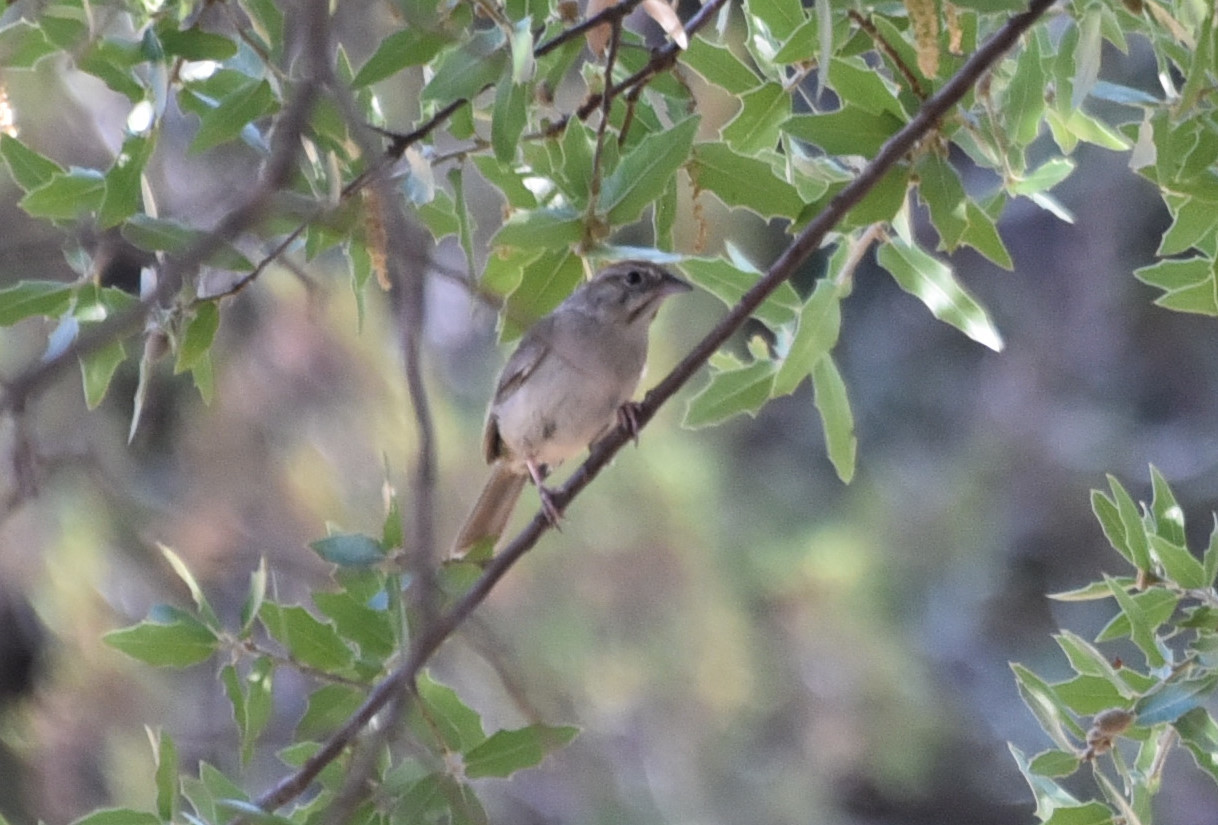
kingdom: Animalia
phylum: Chordata
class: Aves
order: Passeriformes
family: Passerellidae
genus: Aimophila
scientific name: Aimophila ruficeps
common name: Rufous-crowned sparrow
